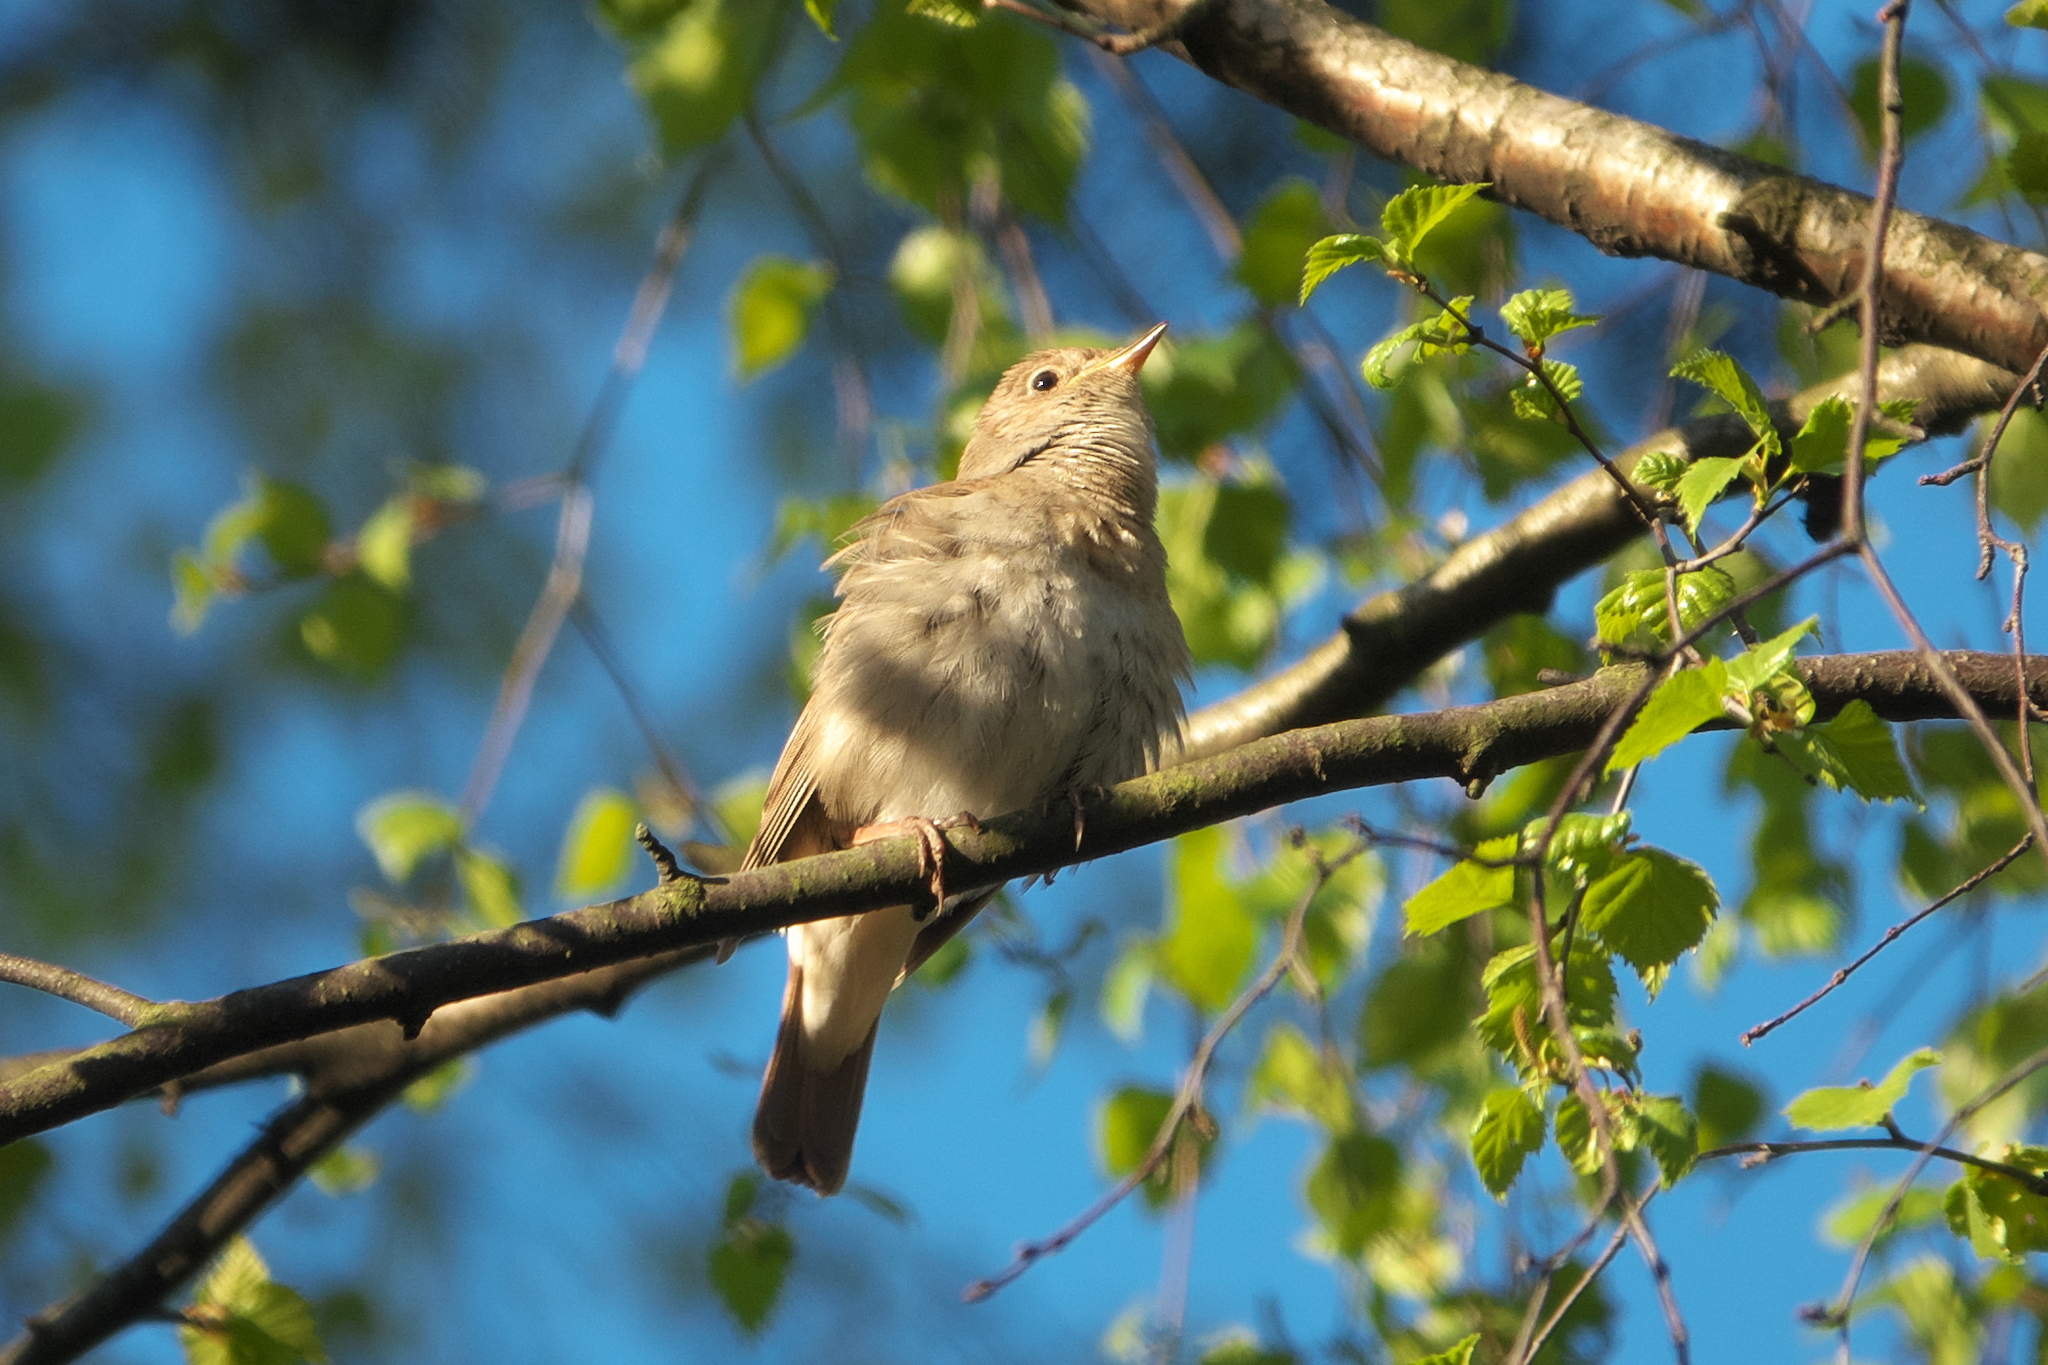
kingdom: Animalia
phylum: Chordata
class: Aves
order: Passeriformes
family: Muscicapidae
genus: Luscinia
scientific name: Luscinia luscinia
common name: Thrush nightingale
